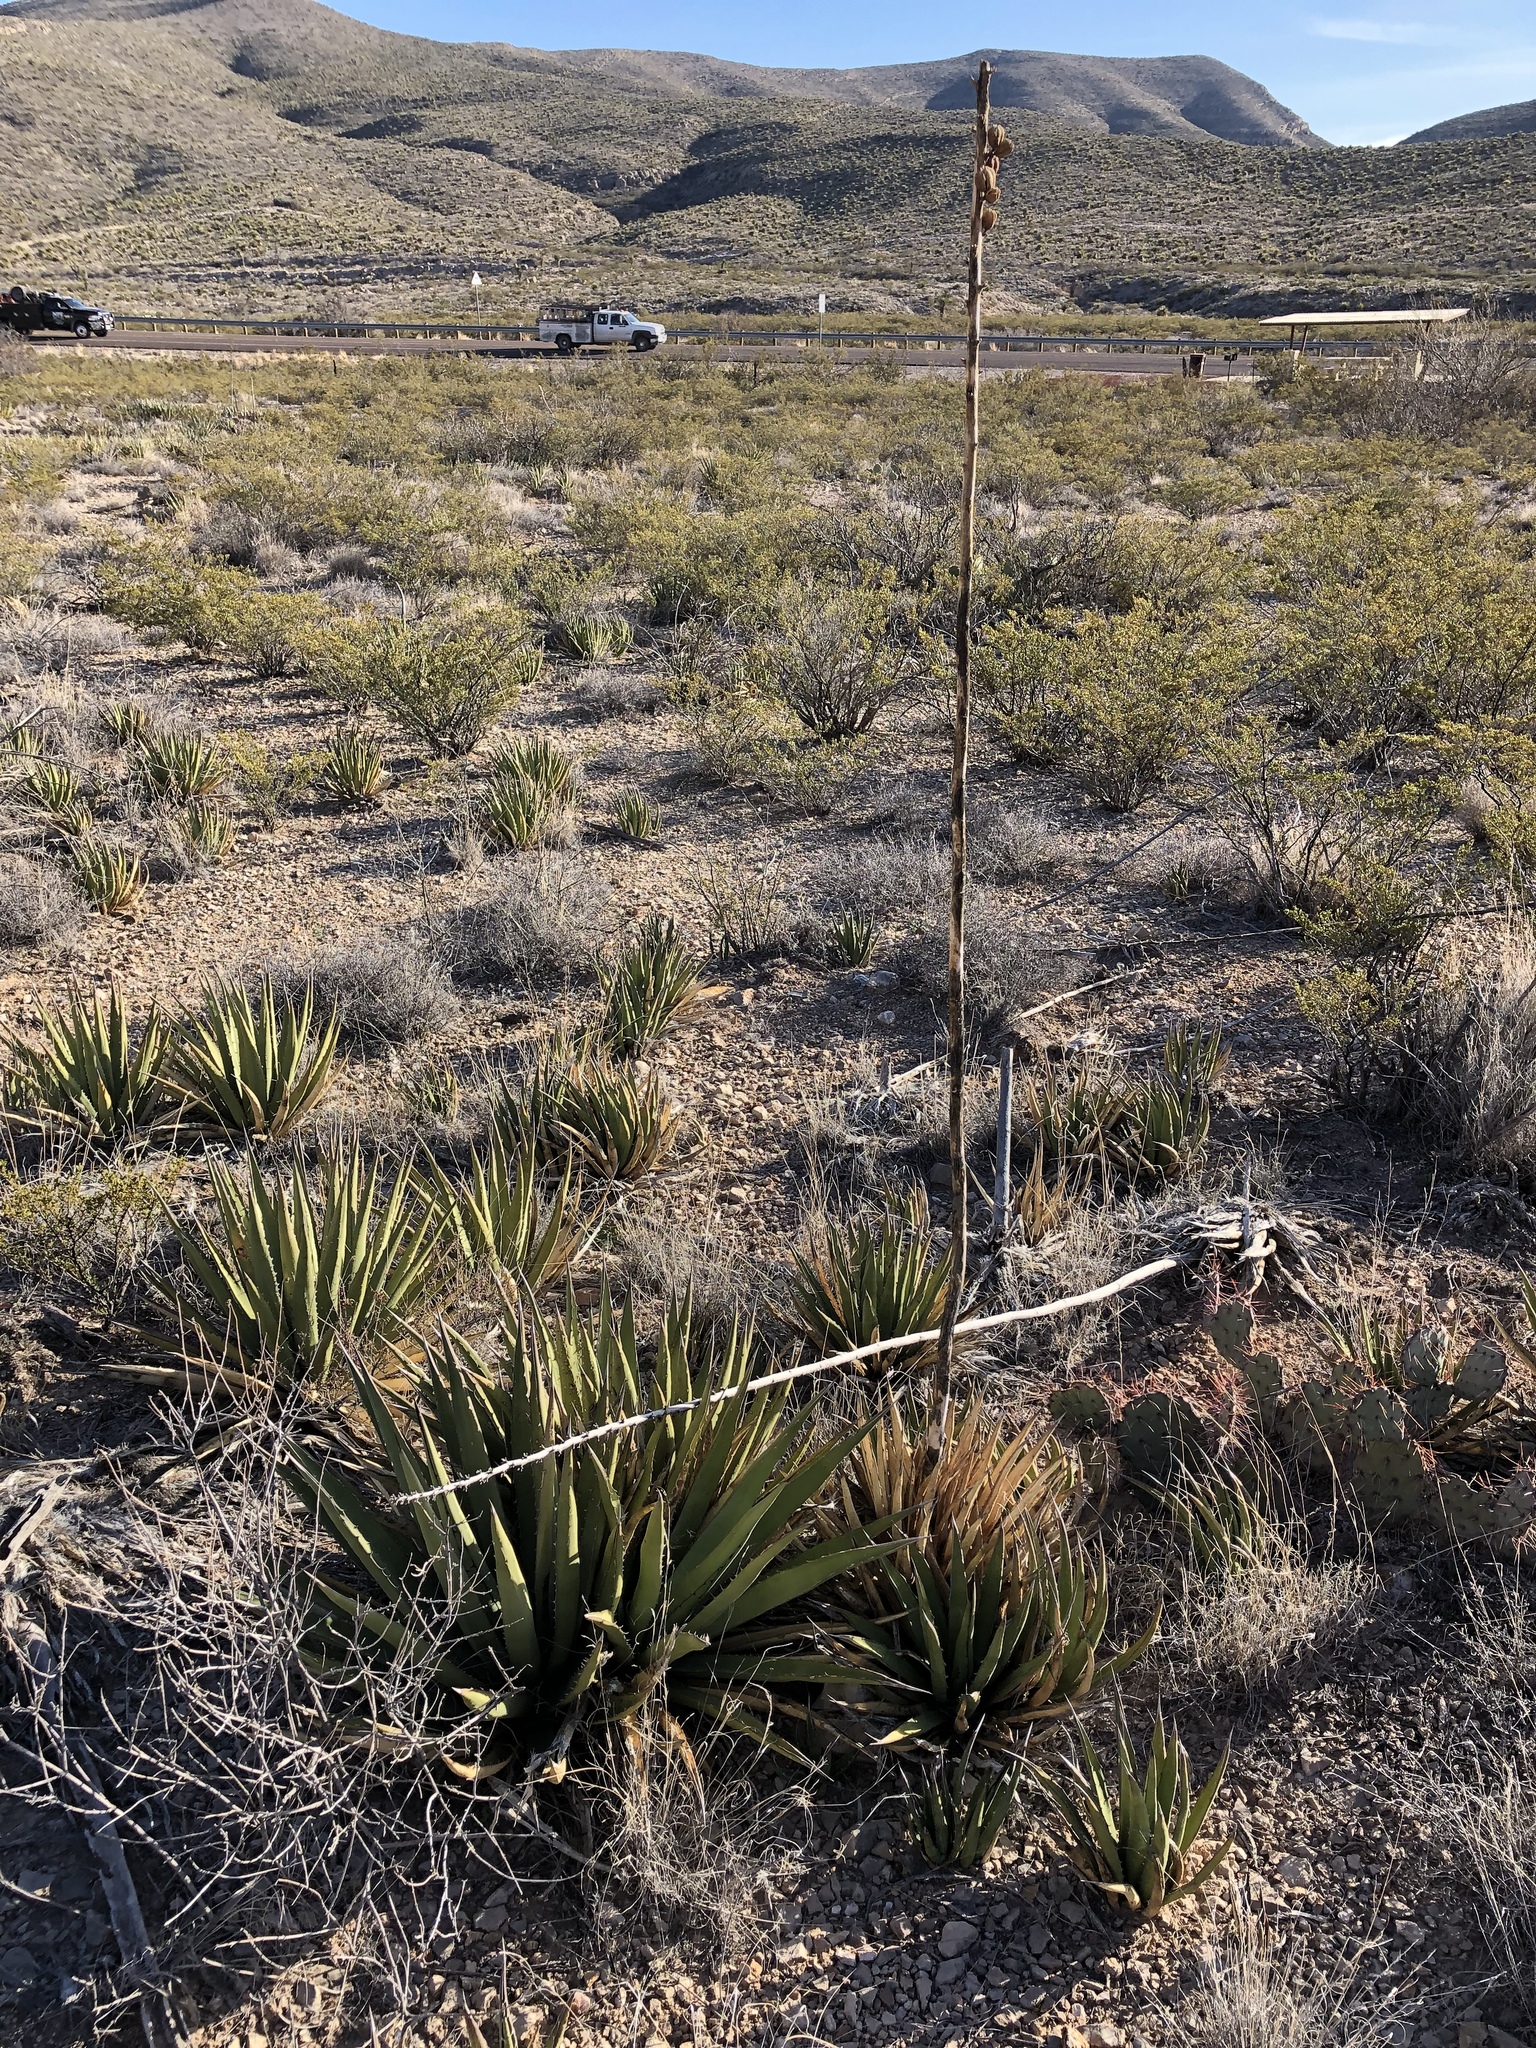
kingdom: Plantae
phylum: Tracheophyta
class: Liliopsida
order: Asparagales
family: Asparagaceae
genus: Agave
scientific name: Agave lechuguilla
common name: Lecheguilla agave
